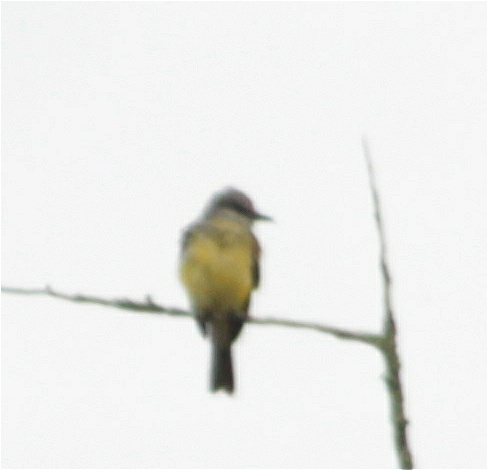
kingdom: Animalia
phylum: Chordata
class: Aves
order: Passeriformes
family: Tyrannidae
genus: Tyrannus
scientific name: Tyrannus melancholicus
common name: Tropical kingbird
